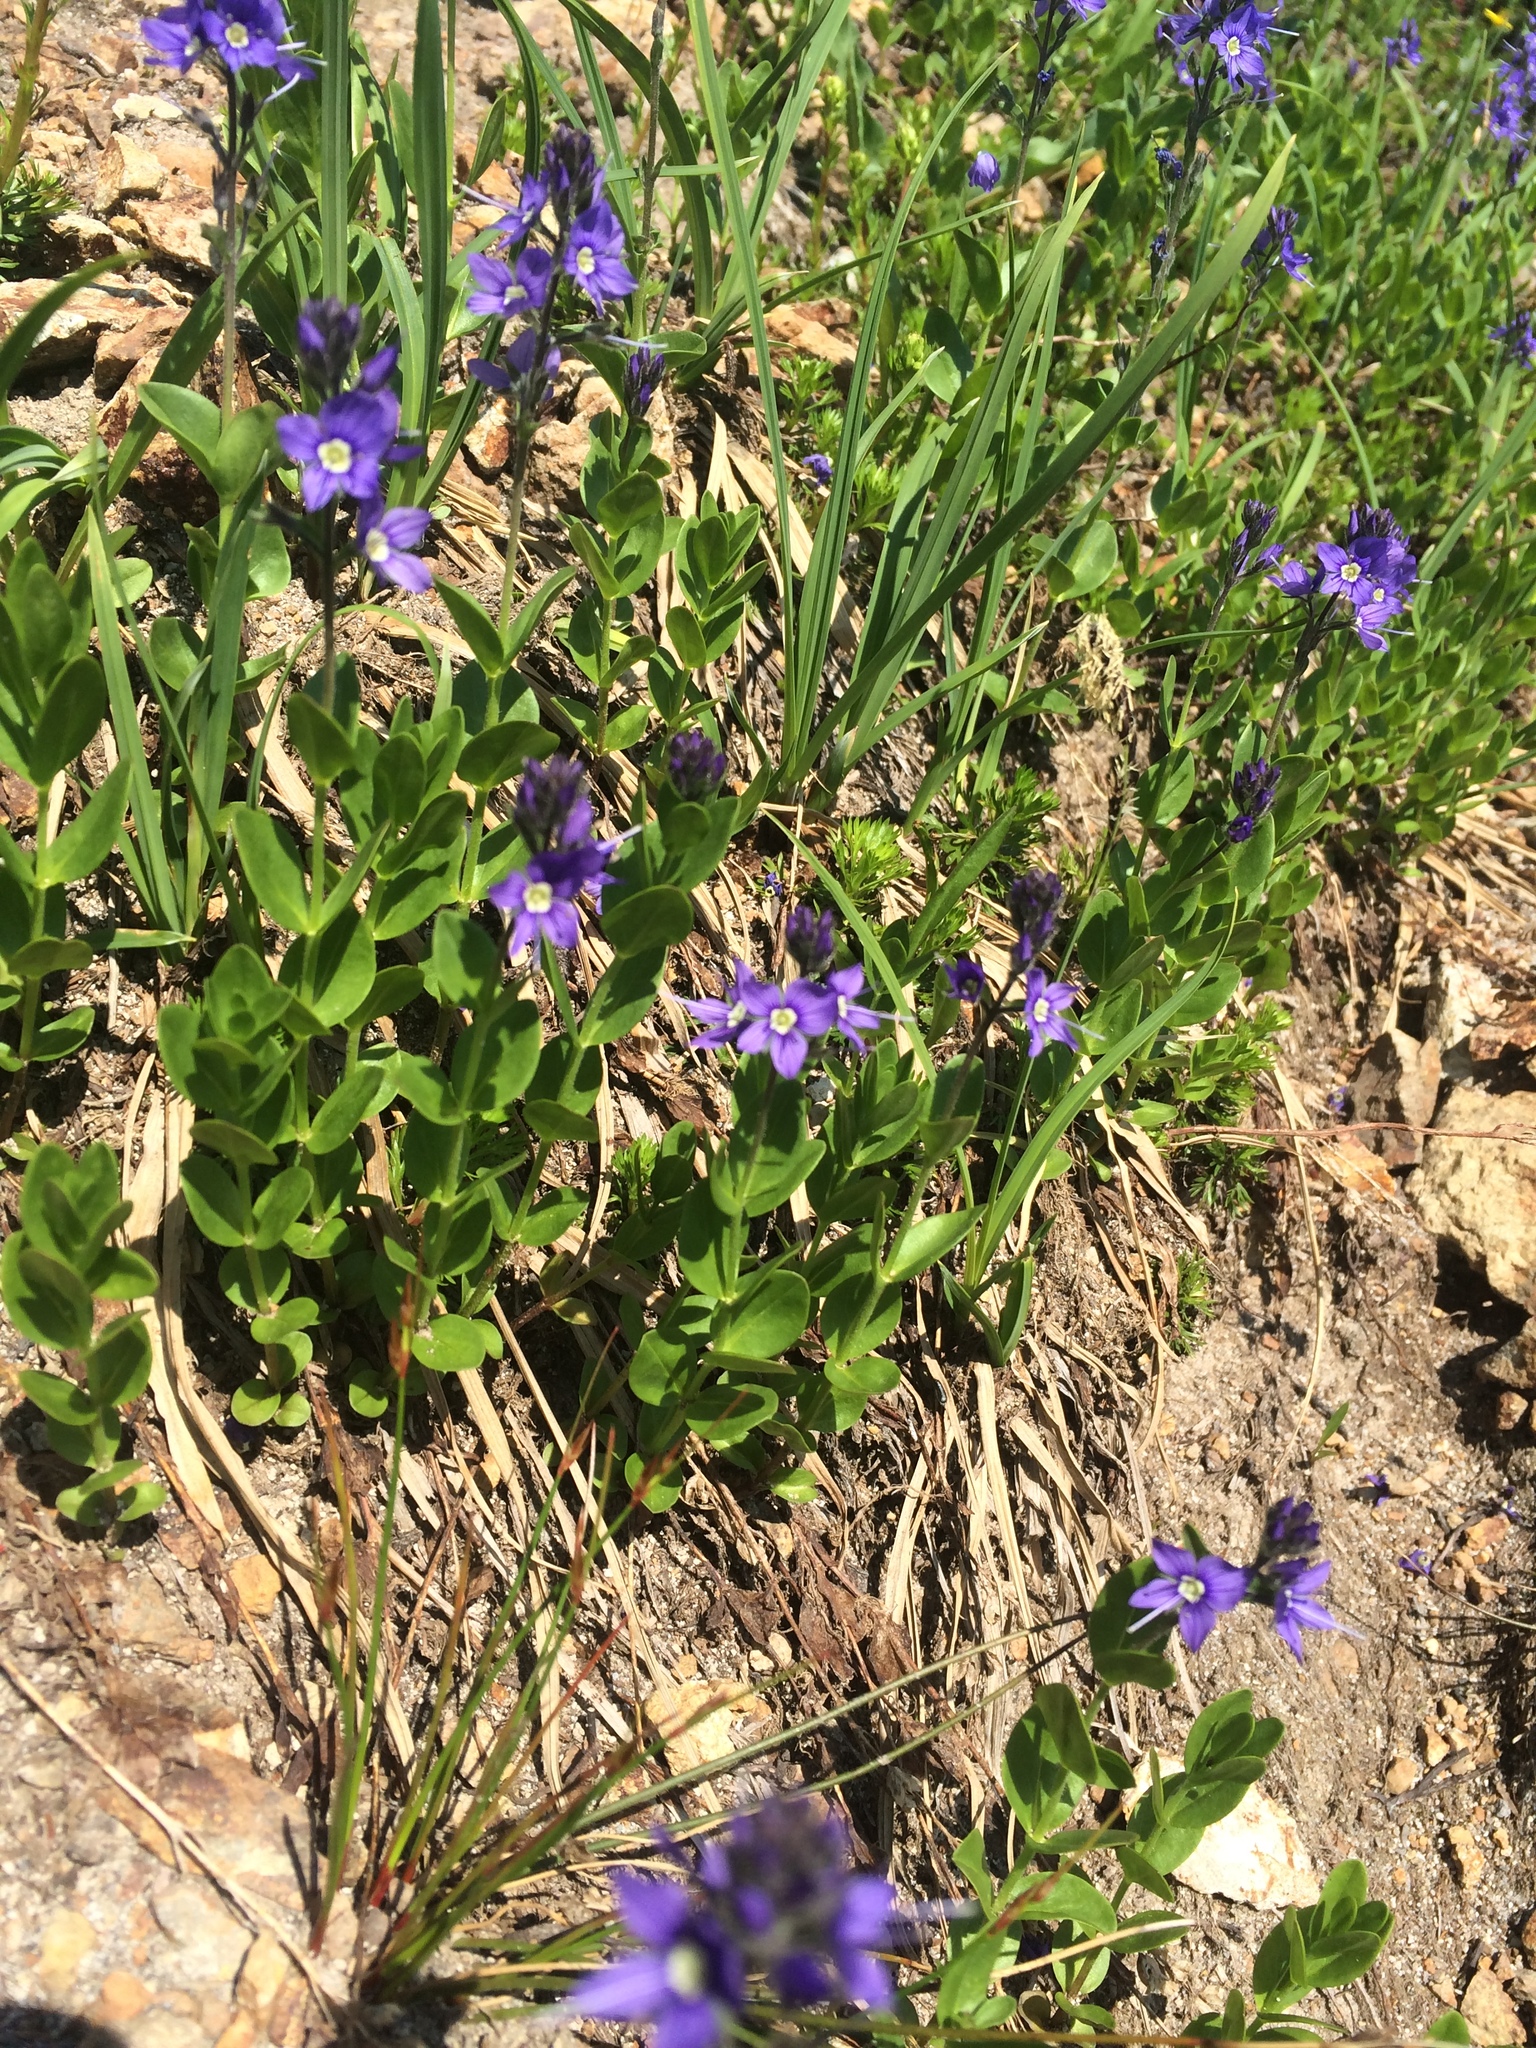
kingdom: Plantae
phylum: Tracheophyta
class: Magnoliopsida
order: Lamiales
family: Plantaginaceae
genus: Veronica
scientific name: Veronica cusickii
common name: Cusick's speedwell
